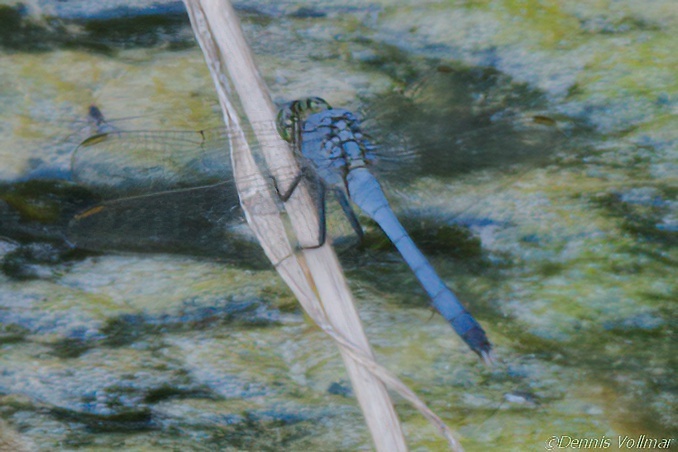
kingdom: Animalia
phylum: Arthropoda
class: Insecta
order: Odonata
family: Libellulidae
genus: Erythemis
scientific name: Erythemis simplicicollis
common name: Eastern pondhawk
